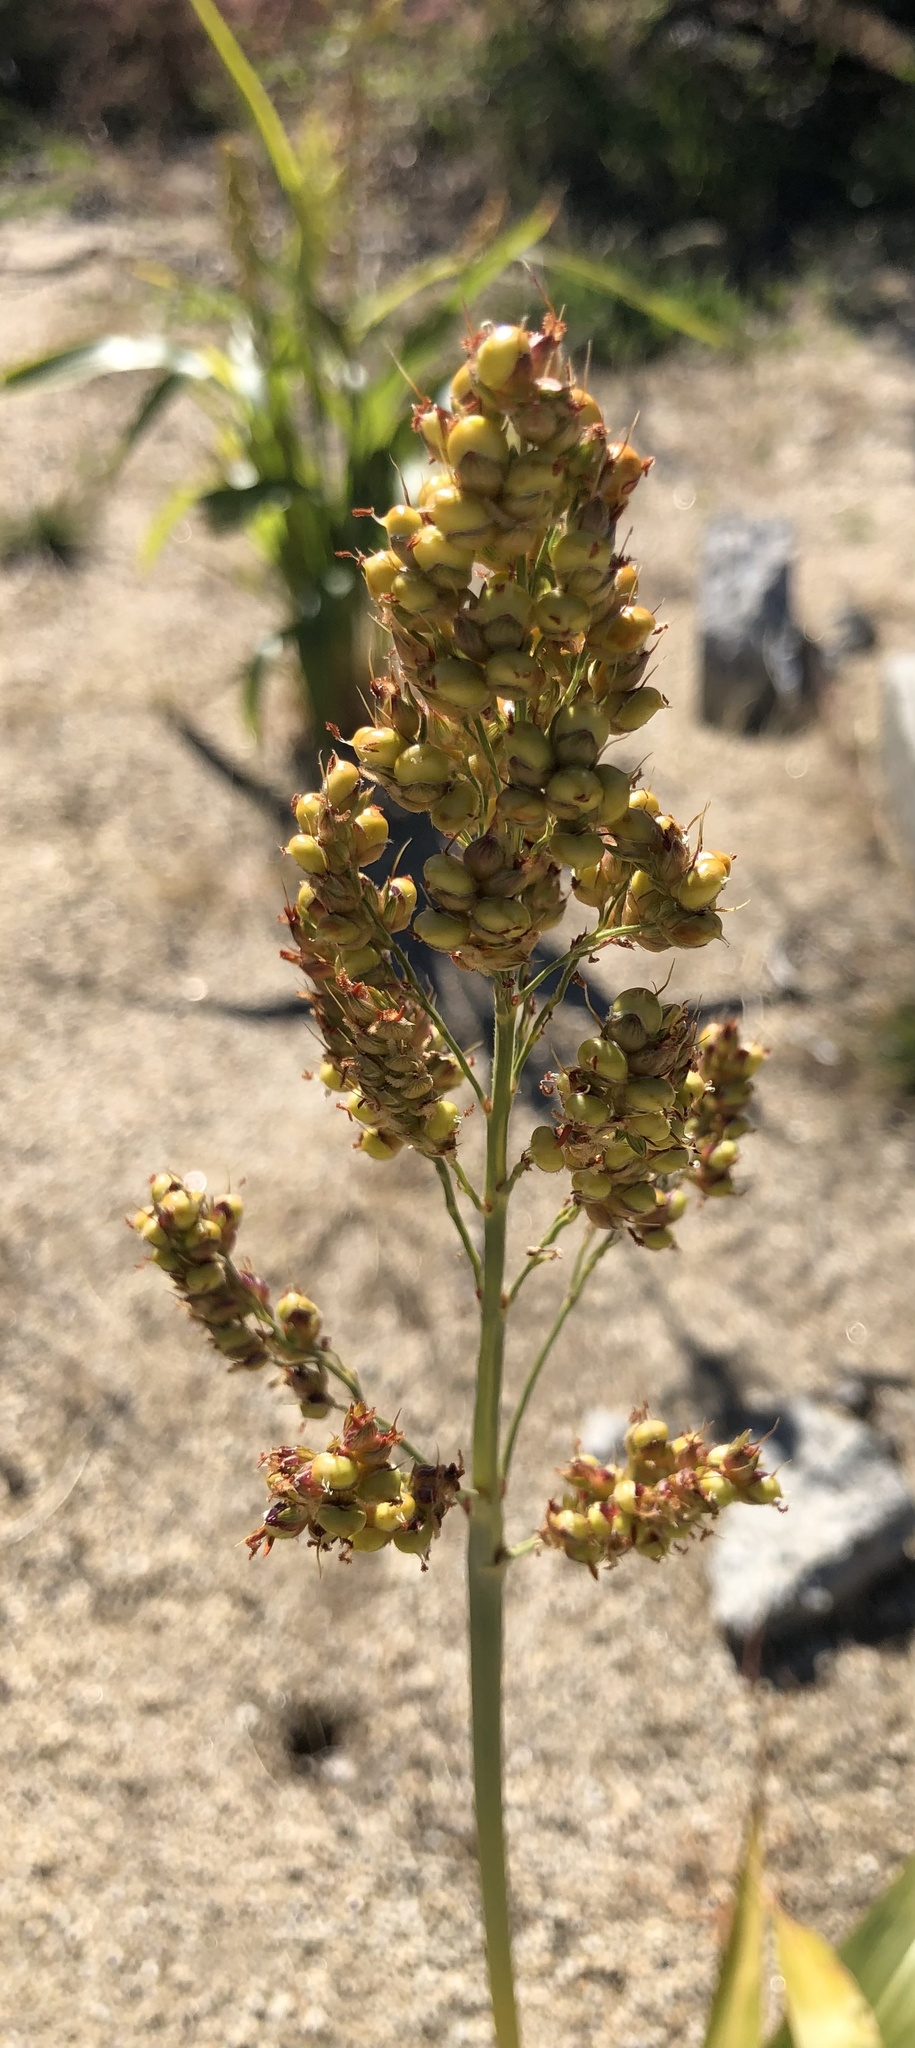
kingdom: Plantae
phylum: Tracheophyta
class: Liliopsida
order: Poales
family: Poaceae
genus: Sorghum
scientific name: Sorghum bicolor
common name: Sorghum
